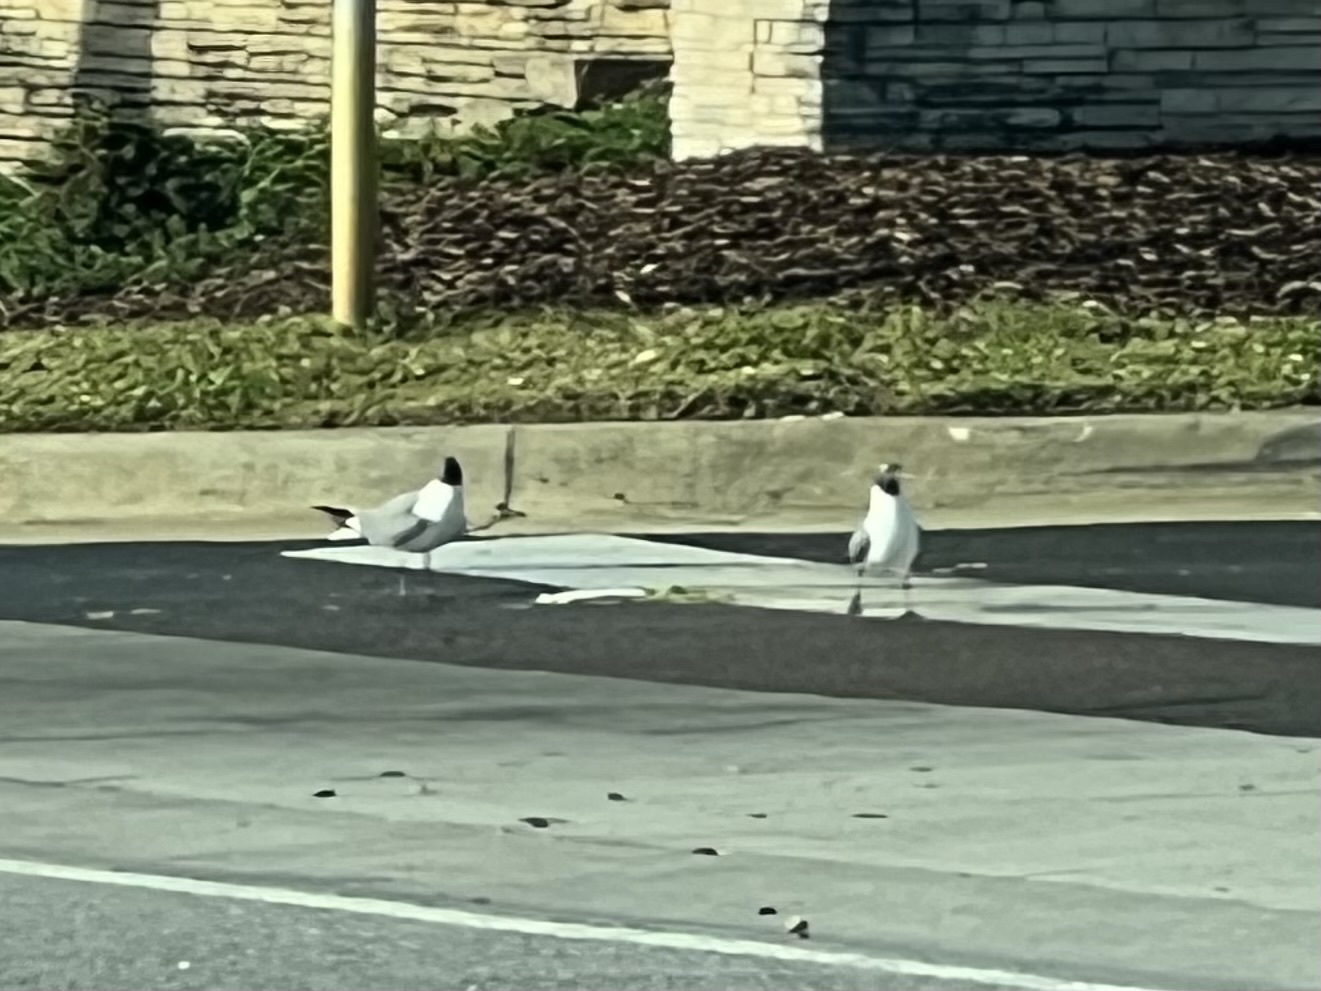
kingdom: Animalia
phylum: Chordata
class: Aves
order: Charadriiformes
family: Laridae
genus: Leucophaeus
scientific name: Leucophaeus atricilla
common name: Laughing gull
